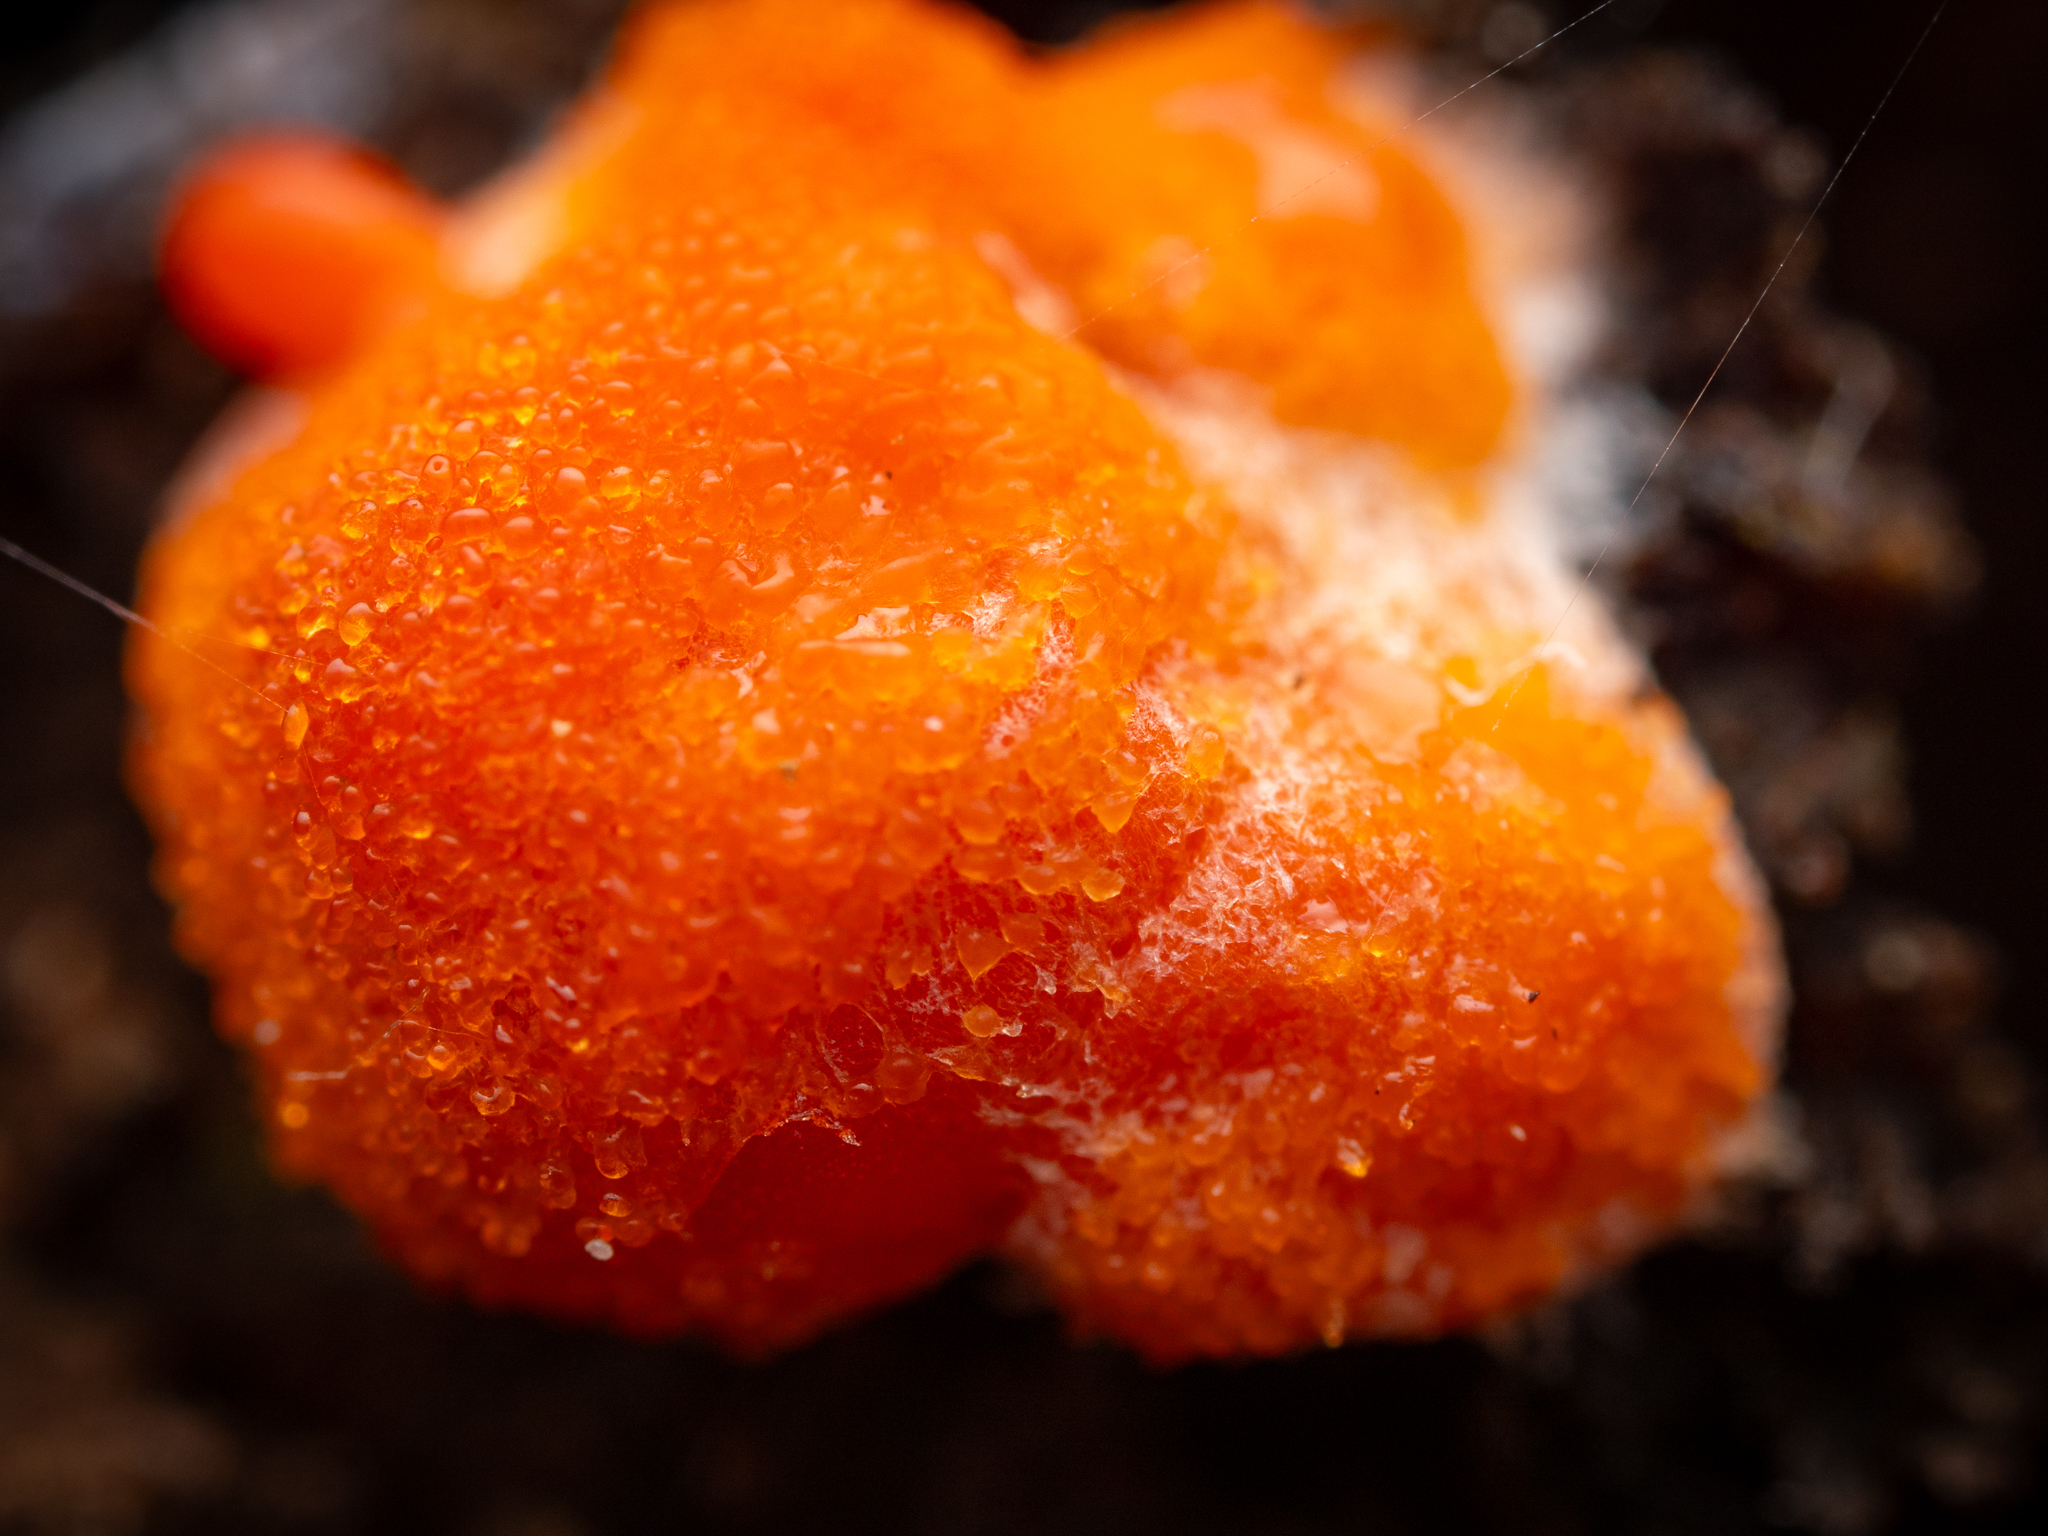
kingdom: Protozoa
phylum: Mycetozoa
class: Myxomycetes
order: Cribrariales
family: Tubiferaceae
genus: Tubifera
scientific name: Tubifera ferruginosa
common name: Red raspberry slime mold
